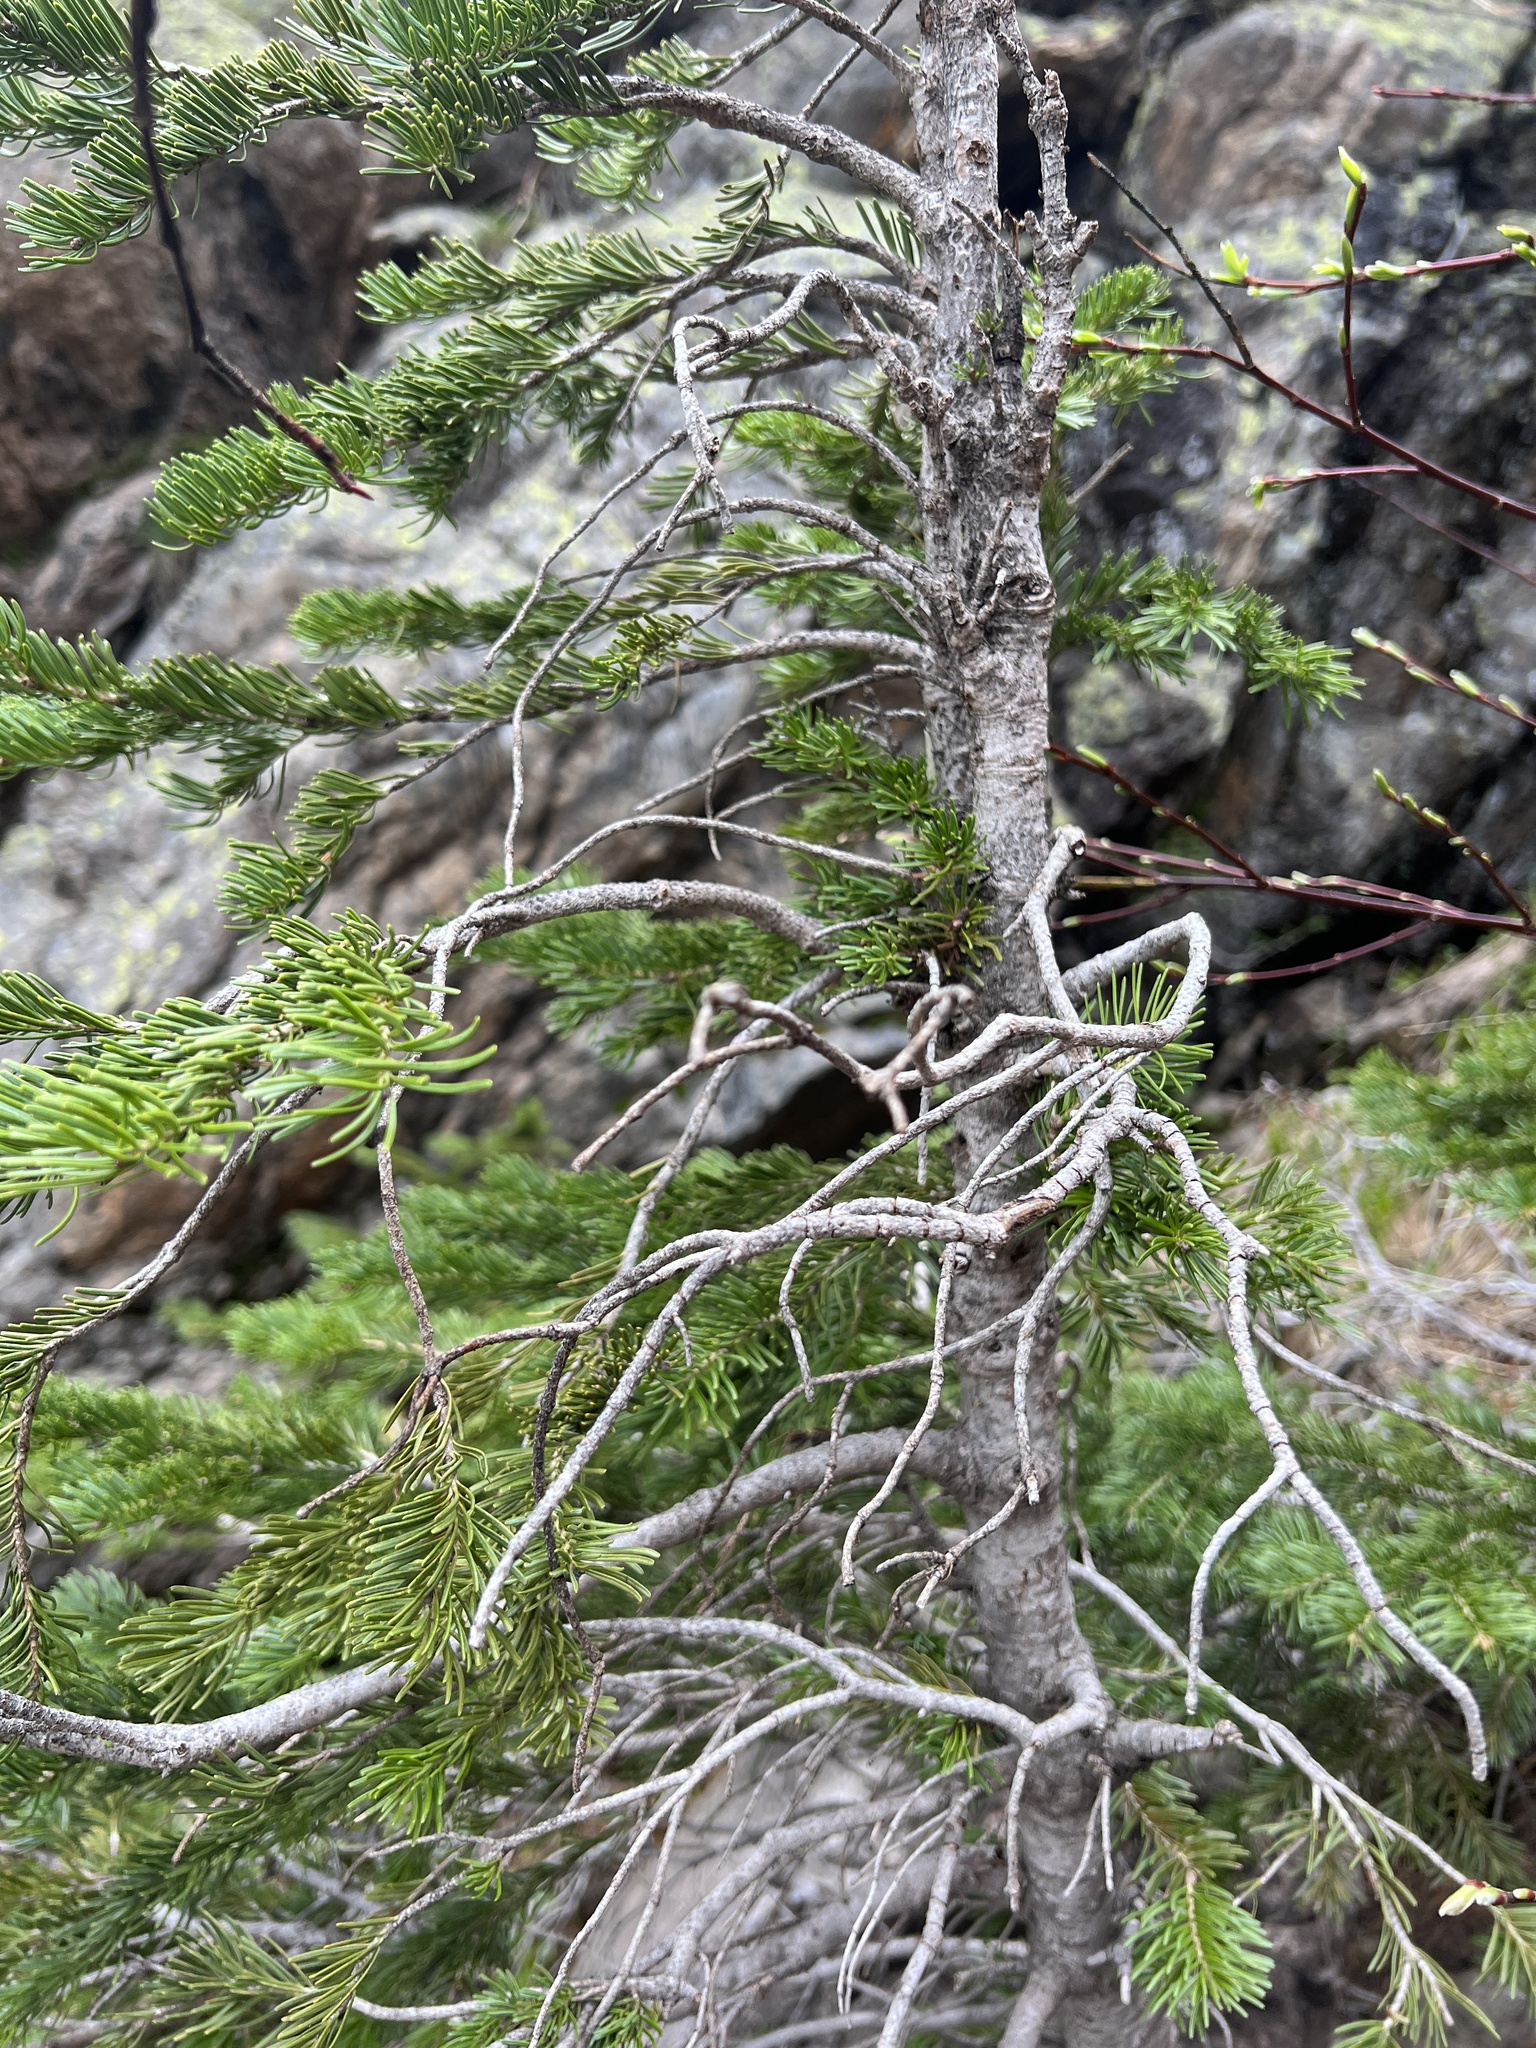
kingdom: Plantae
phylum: Tracheophyta
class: Pinopsida
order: Pinales
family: Pinaceae
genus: Abies
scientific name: Abies lasiocarpa
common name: Subalpine fir
